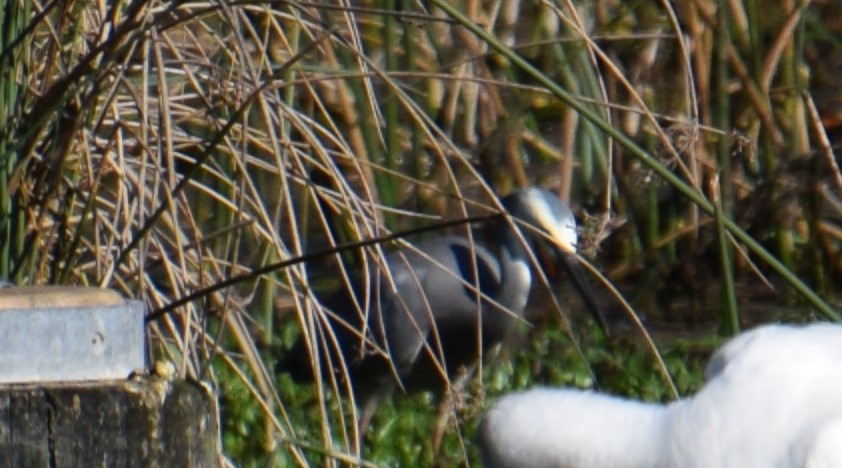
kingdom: Animalia
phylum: Chordata
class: Aves
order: Pelecaniformes
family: Ardeidae
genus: Egretta
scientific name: Egretta novaehollandiae
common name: White-faced heron
